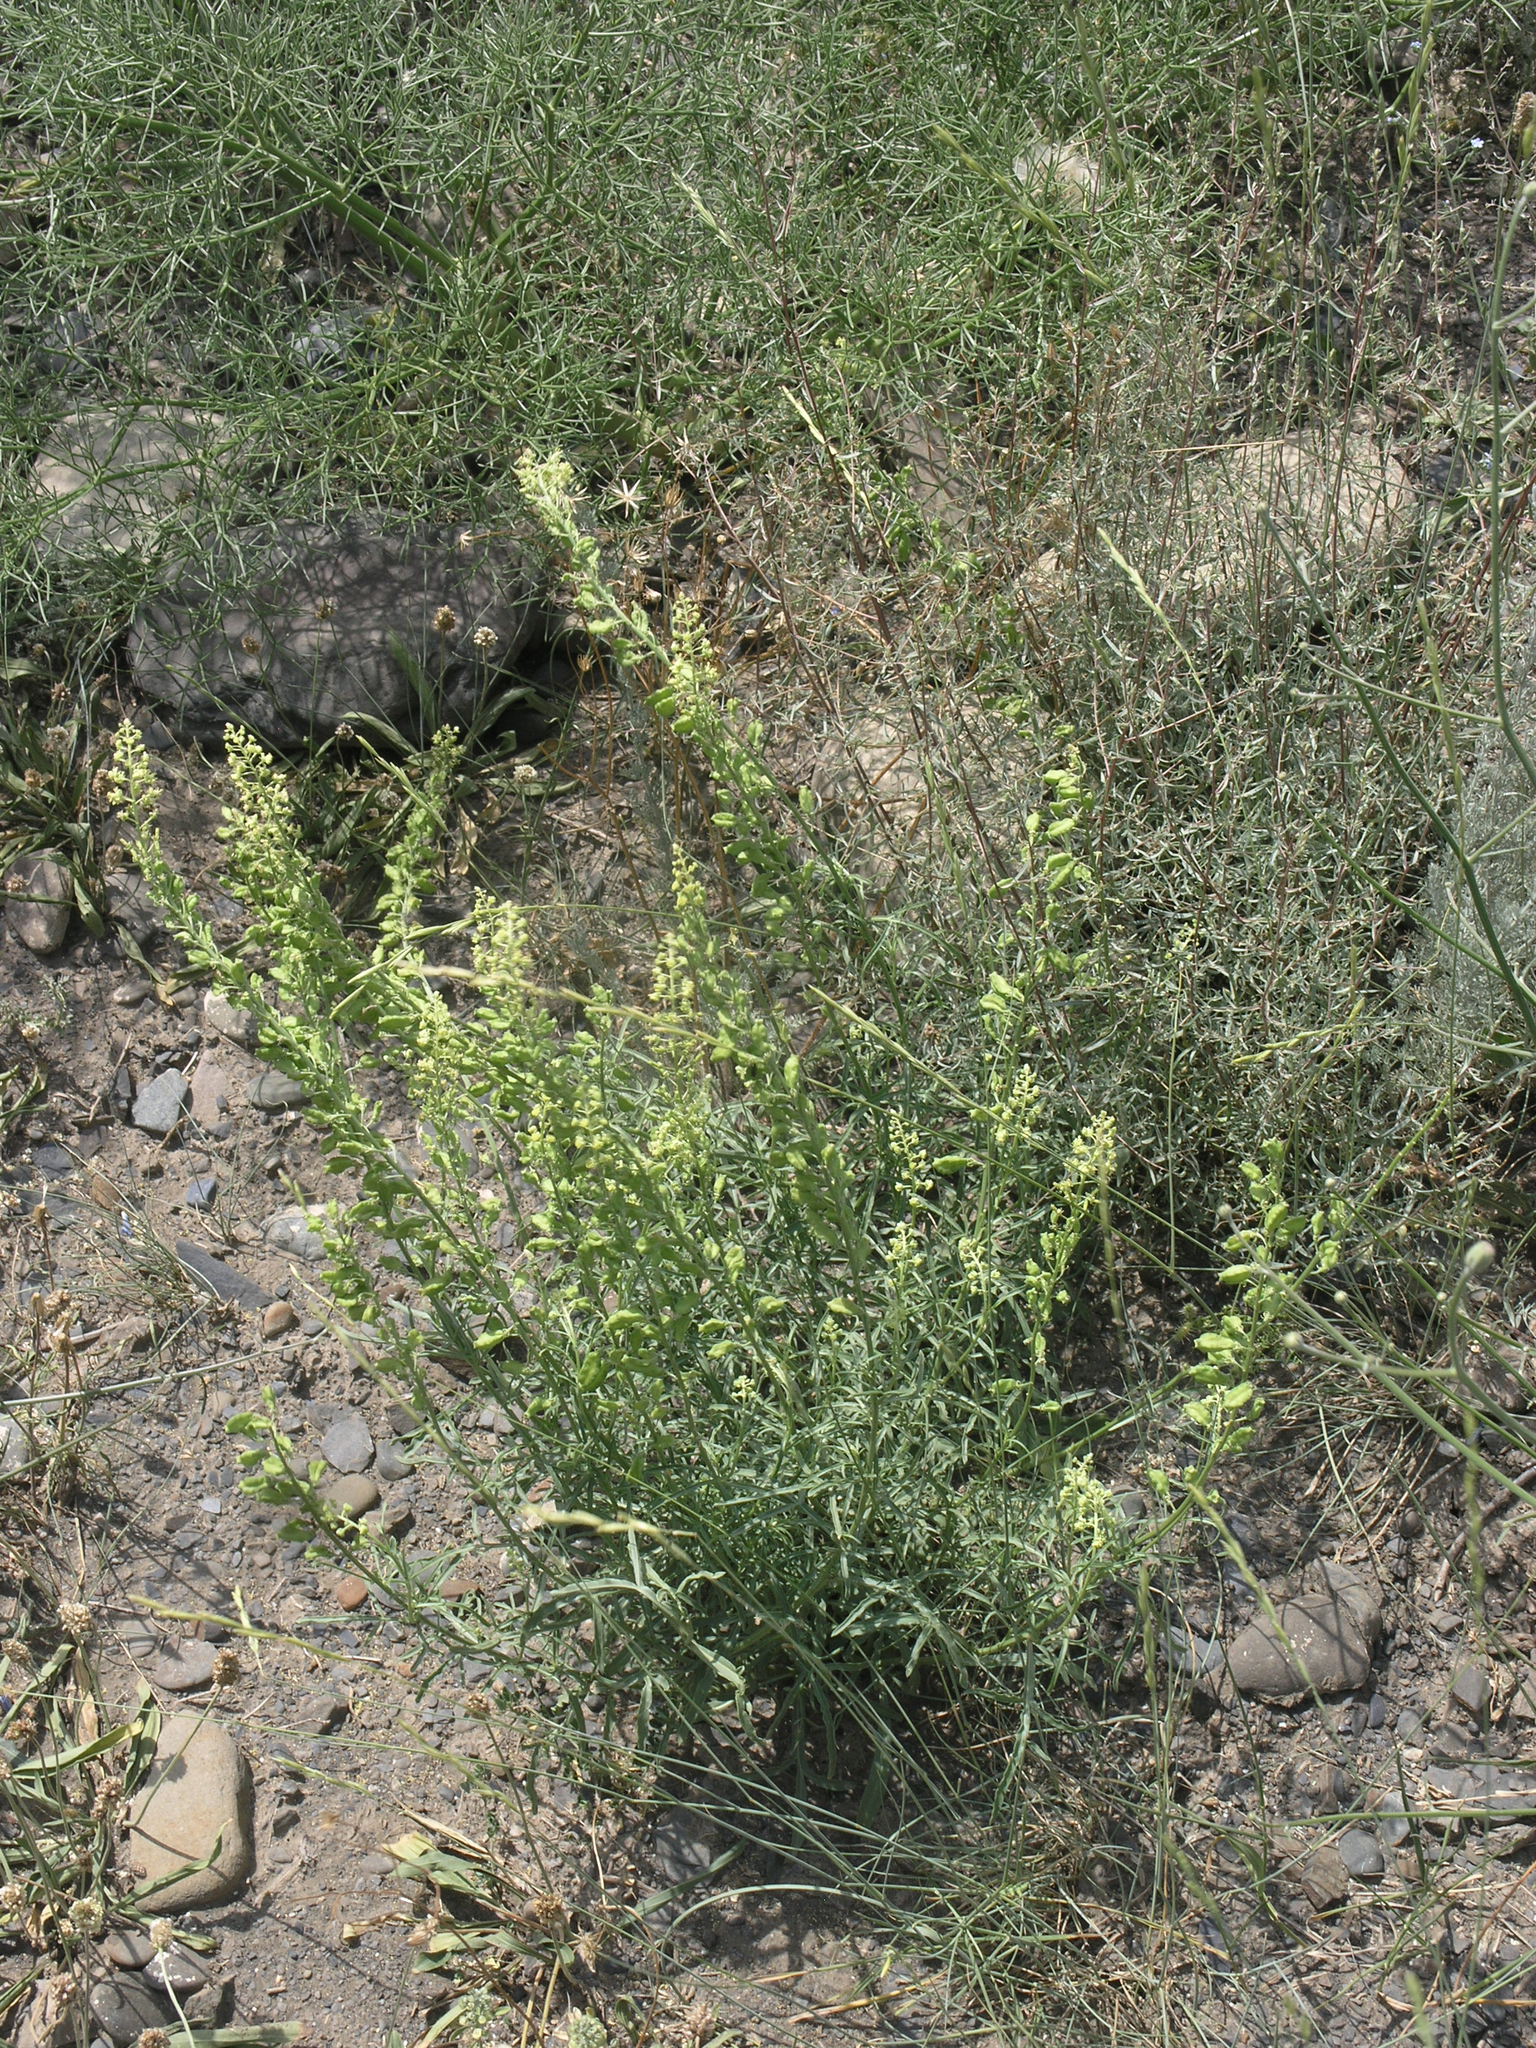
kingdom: Plantae
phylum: Tracheophyta
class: Magnoliopsida
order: Brassicales
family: Resedaceae
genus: Reseda
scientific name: Reseda lutea
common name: Wild mignonette
